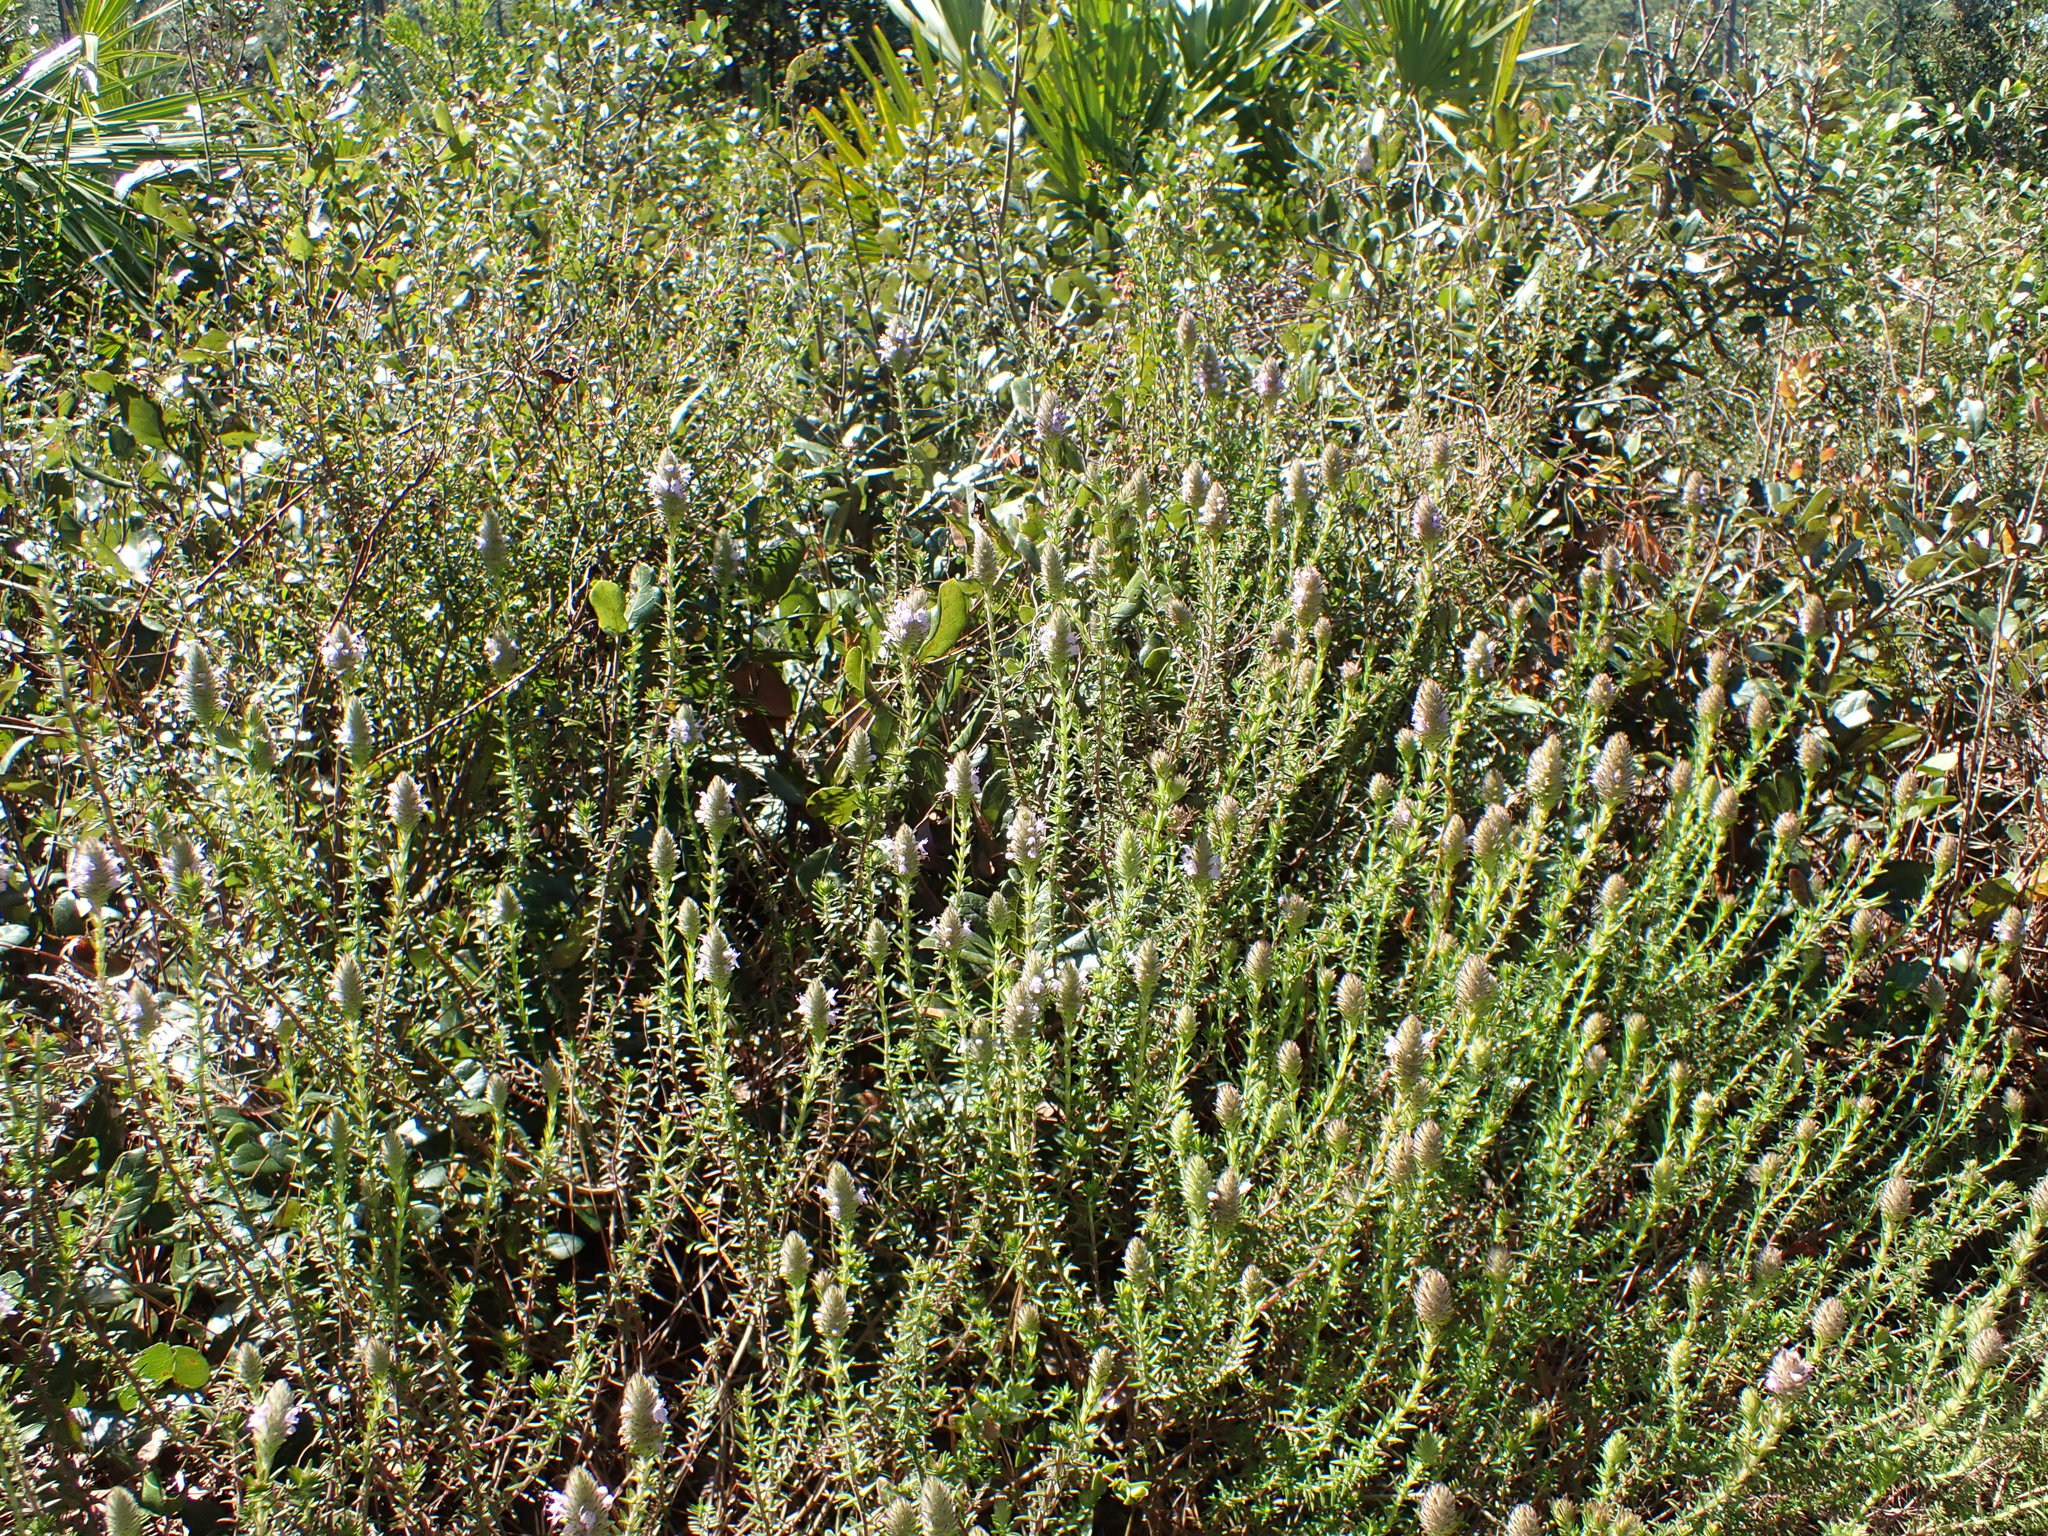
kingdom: Plantae
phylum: Tracheophyta
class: Magnoliopsida
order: Lamiales
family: Lamiaceae
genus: Piloblephis
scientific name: Piloblephis rigida
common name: Wild pennyroyal
